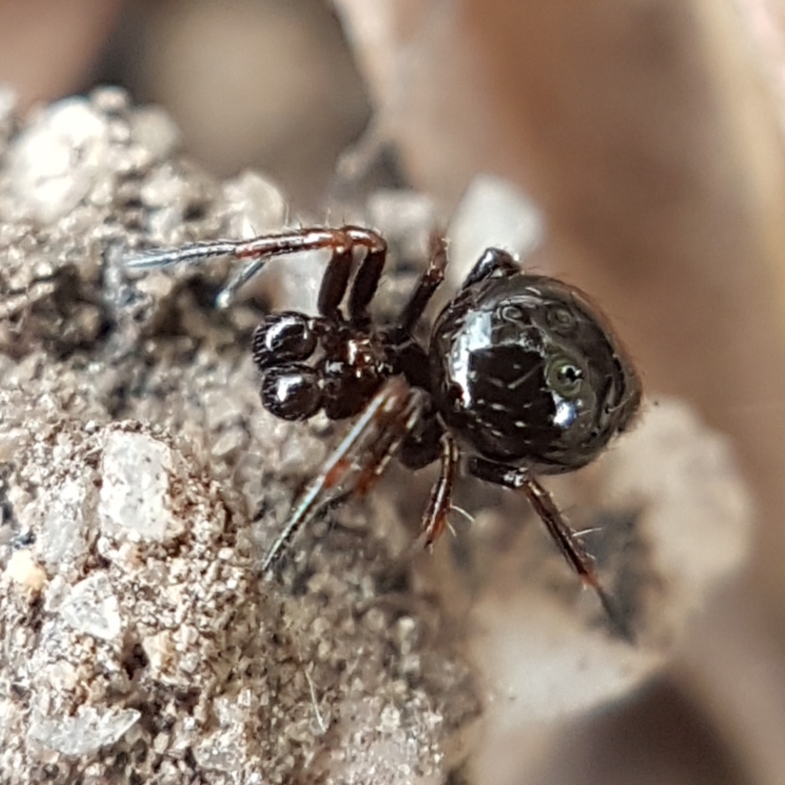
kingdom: Animalia
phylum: Arthropoda
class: Arachnida
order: Araneae
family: Theridiidae
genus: Euryopis
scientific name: Euryopis episinoides
